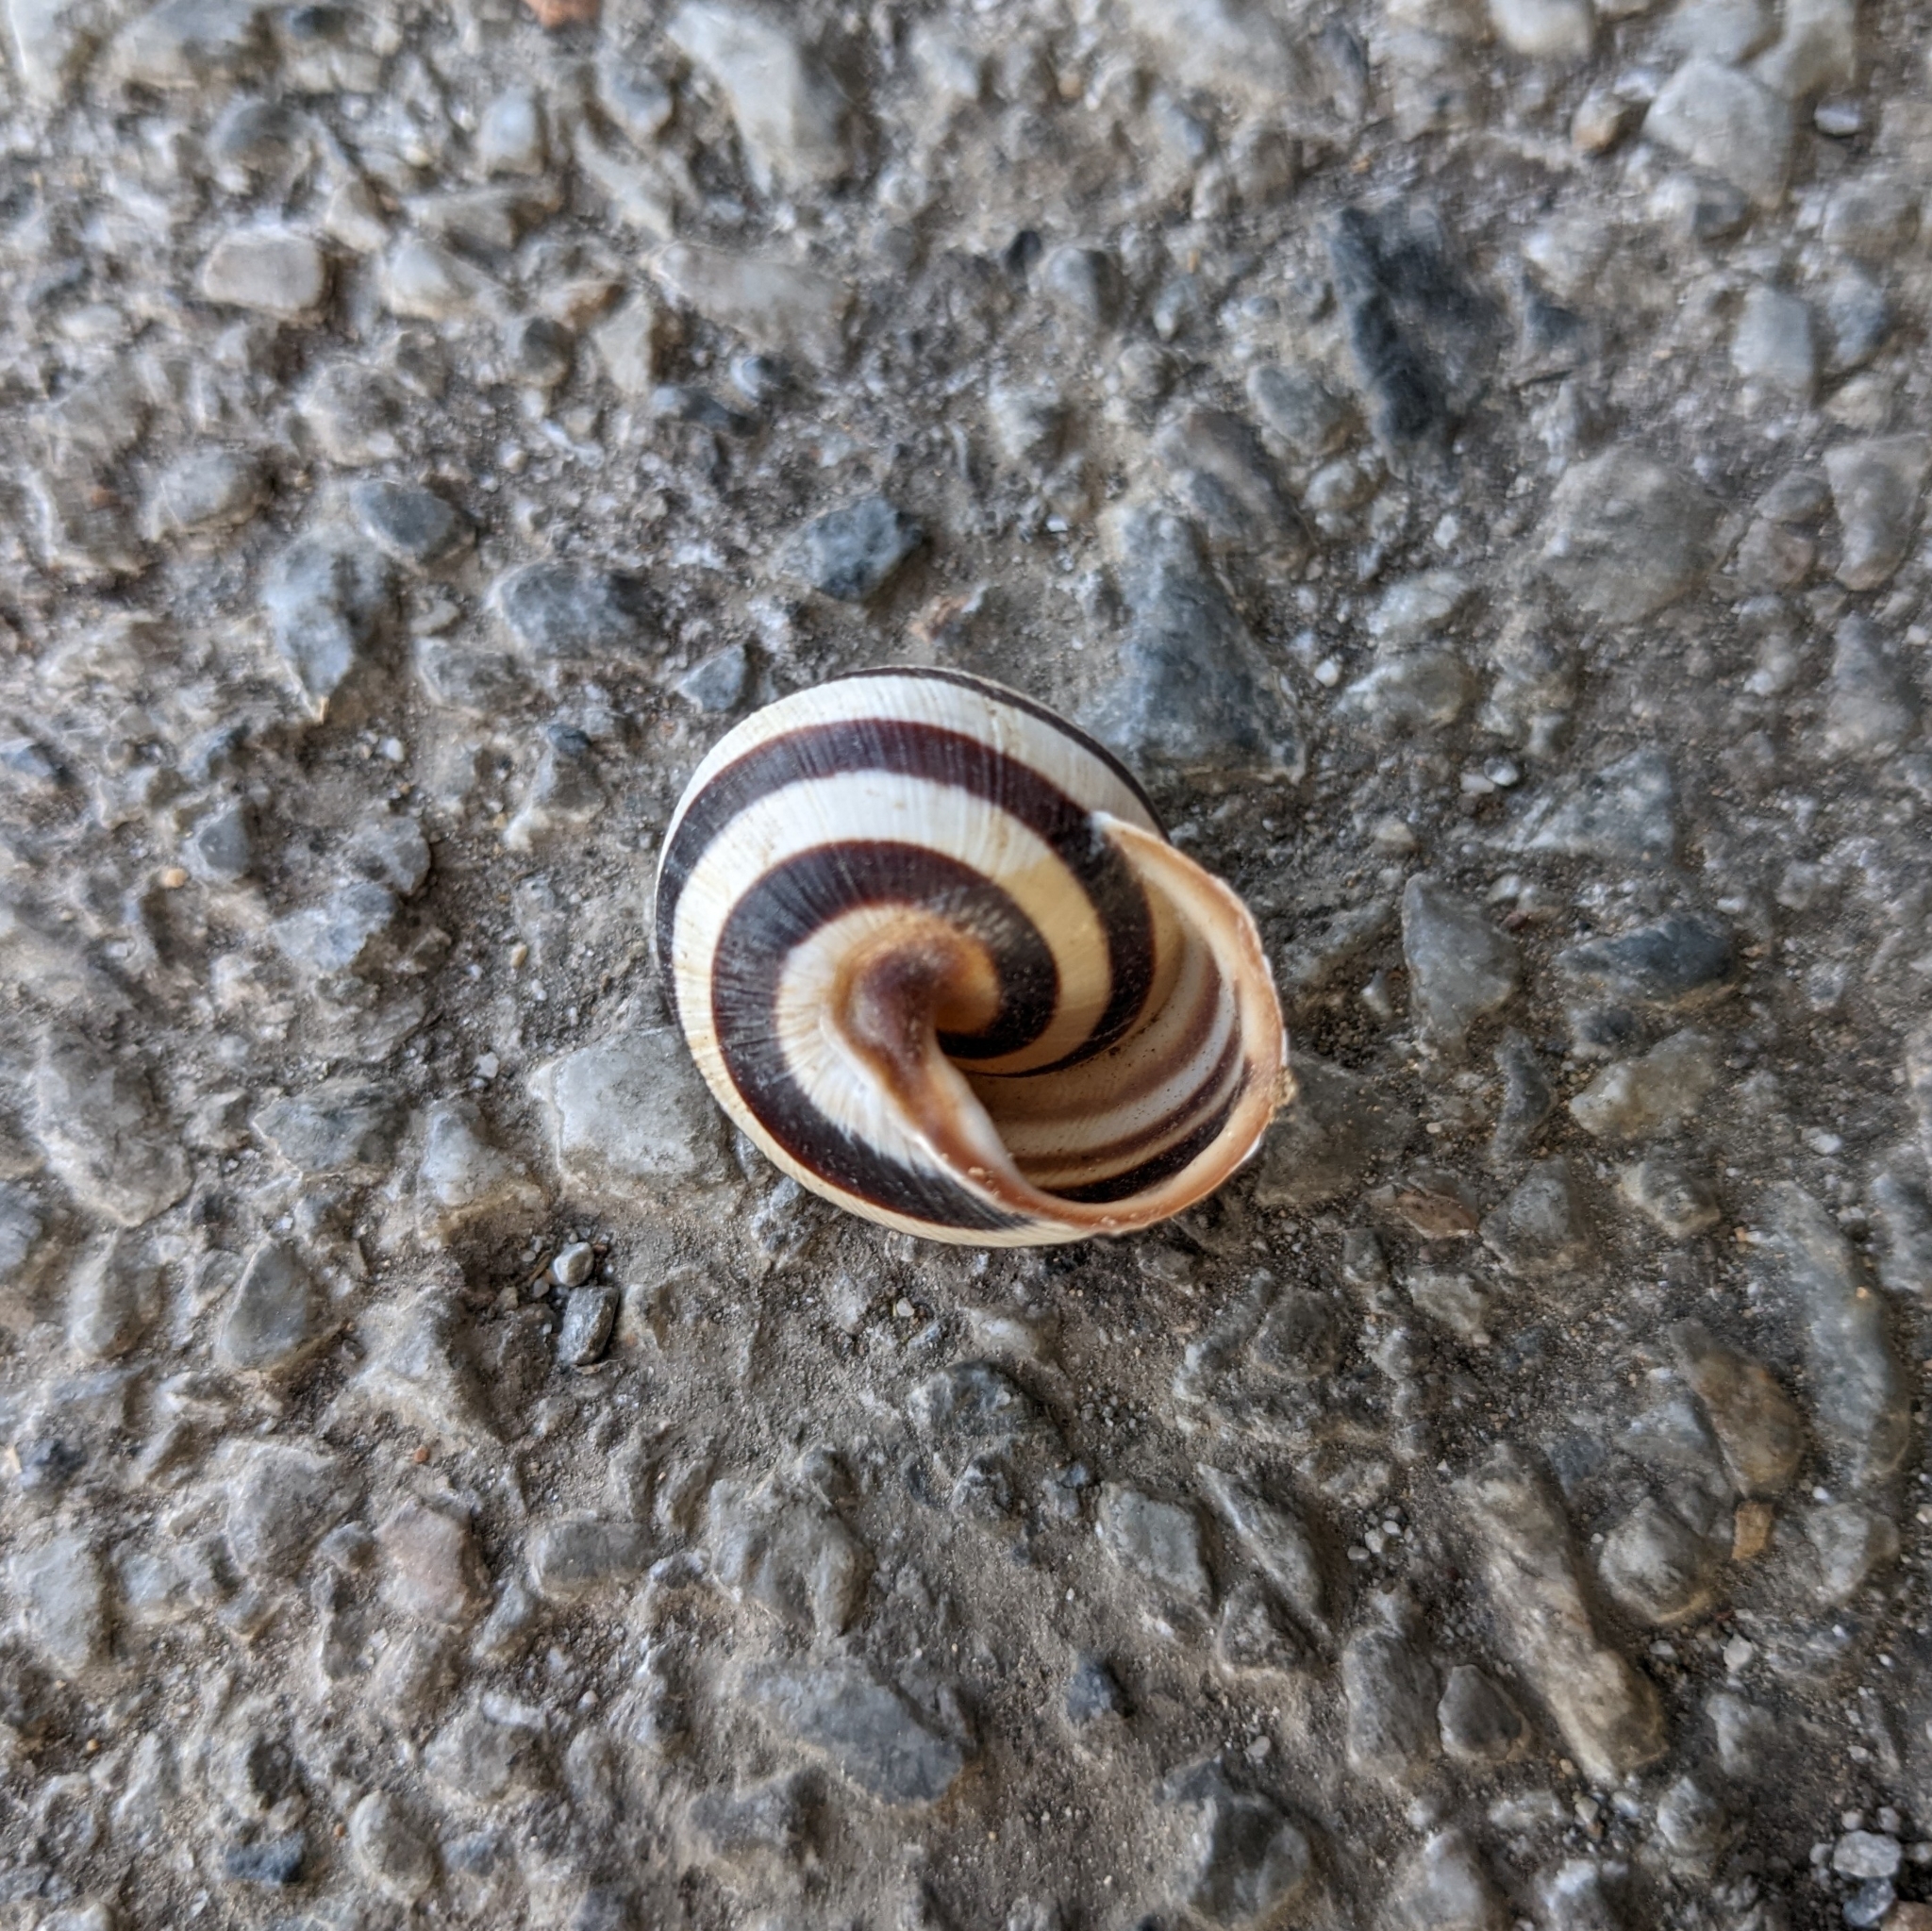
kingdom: Animalia
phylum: Mollusca
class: Gastropoda
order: Stylommatophora
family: Helicidae
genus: Caucasotachea
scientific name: Caucasotachea vindobonensis
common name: European helicid land snail
